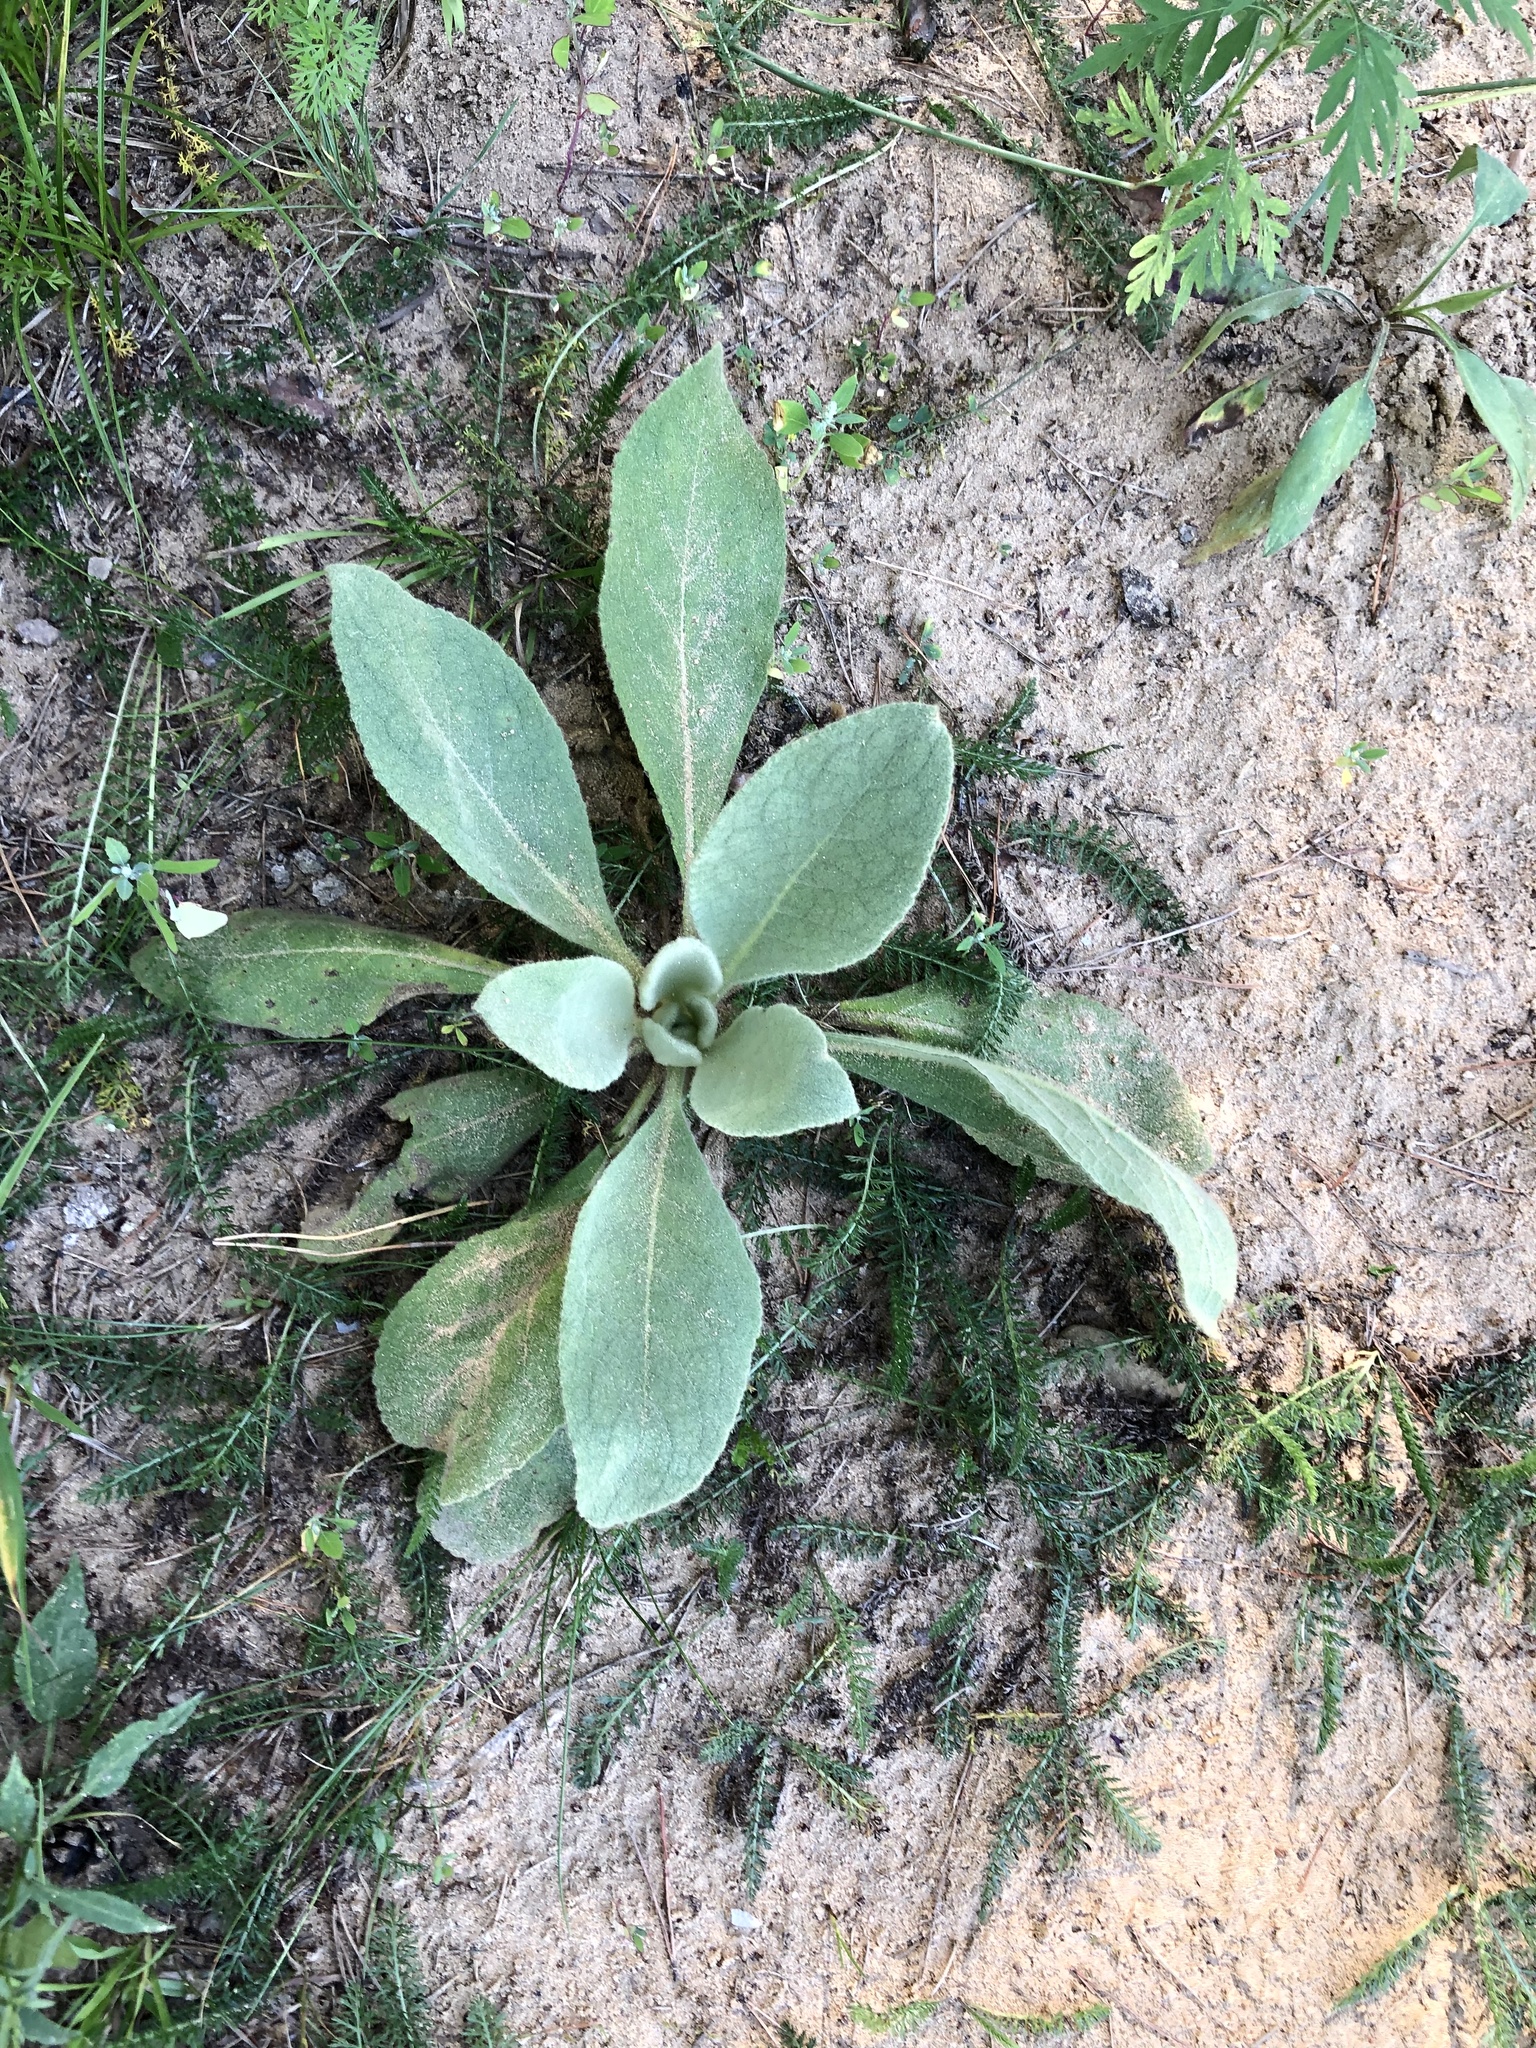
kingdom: Plantae
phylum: Tracheophyta
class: Magnoliopsida
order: Lamiales
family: Scrophulariaceae
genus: Verbascum
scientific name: Verbascum thapsus
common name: Common mullein
